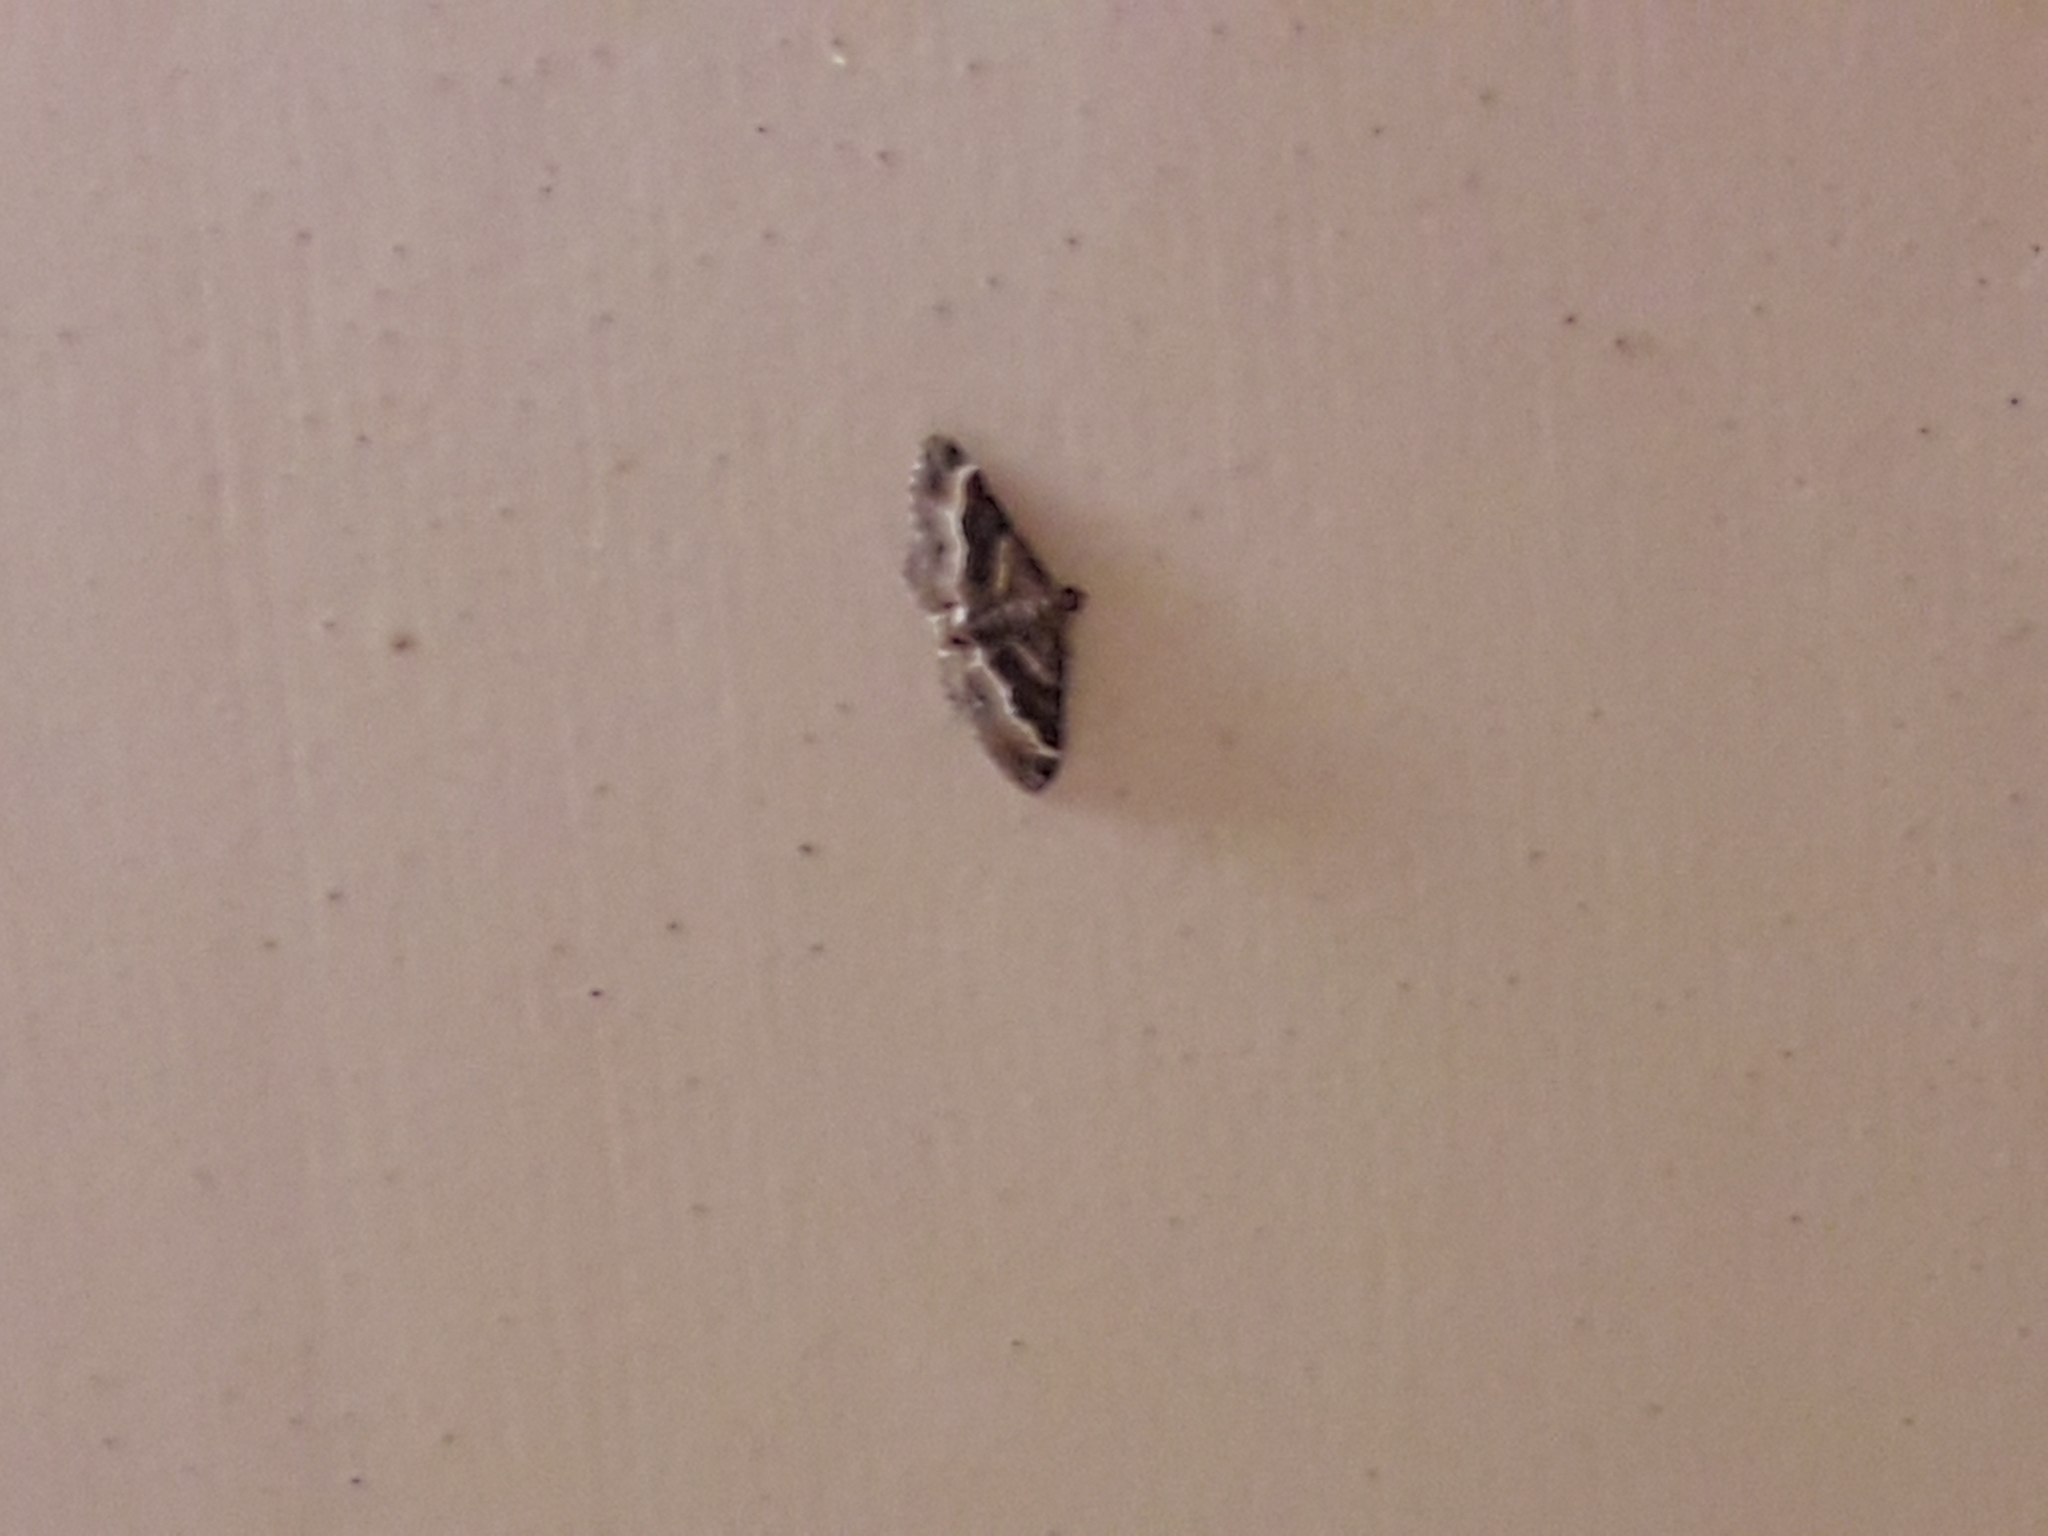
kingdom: Animalia
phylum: Arthropoda
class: Insecta
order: Lepidoptera
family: Geometridae
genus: Epyaxa
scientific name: Epyaxa lucidata
